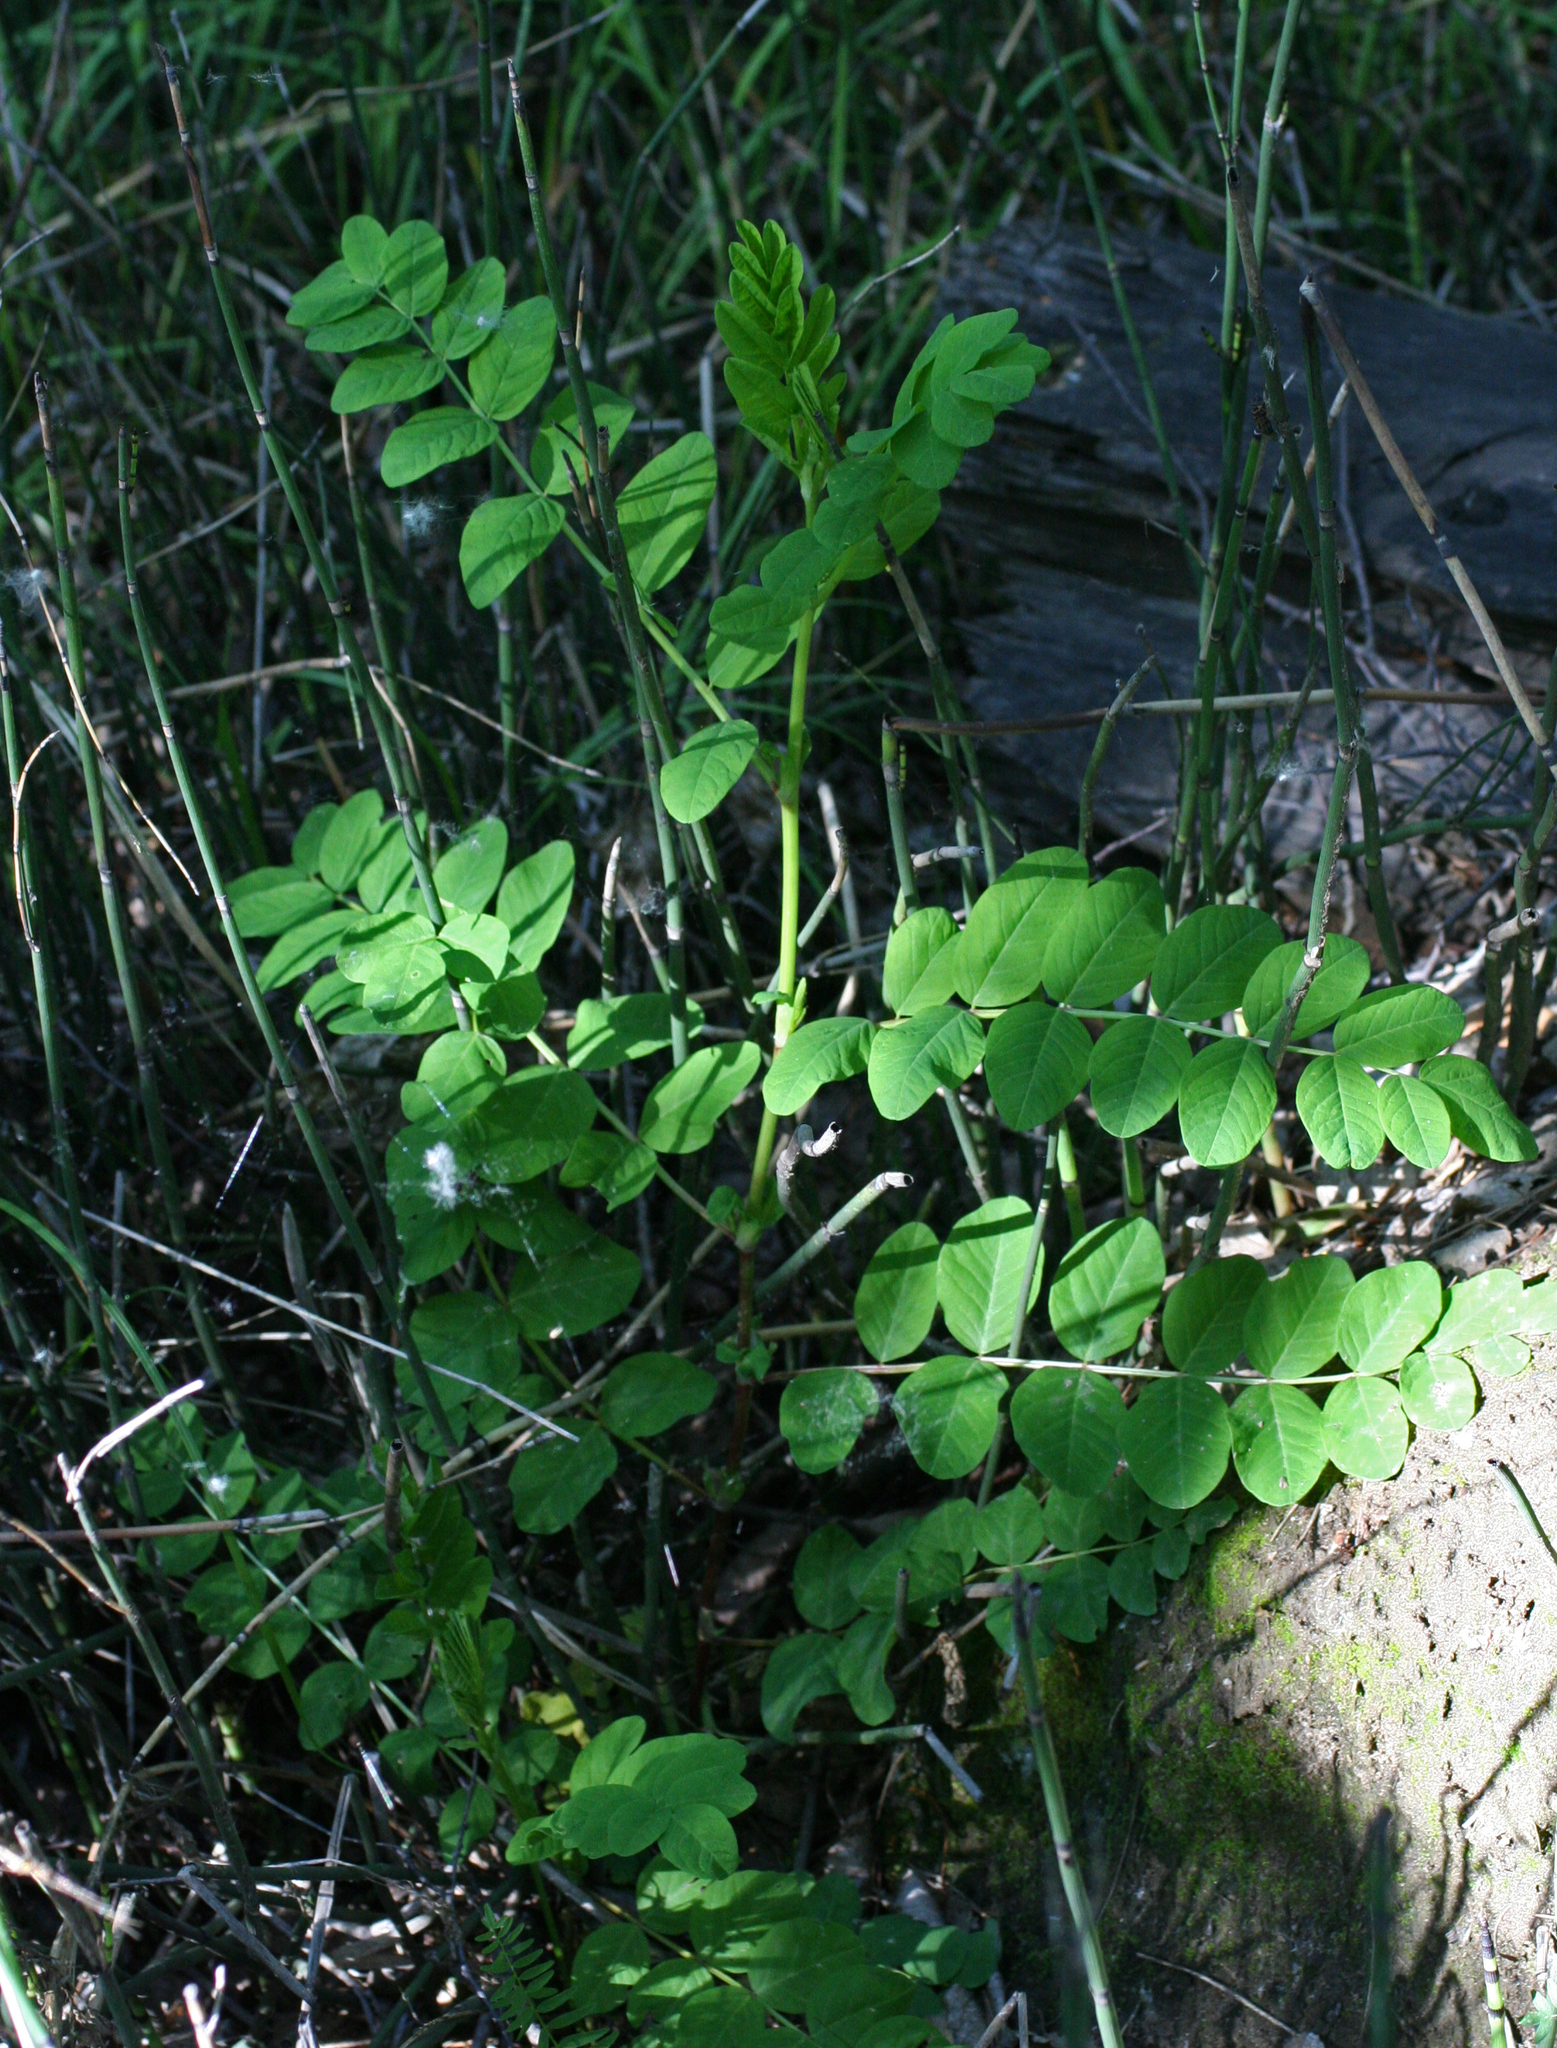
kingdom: Plantae
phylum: Tracheophyta
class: Magnoliopsida
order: Fabales
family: Fabaceae
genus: Astragalus
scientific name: Astragalus glycyphyllos
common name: Wild liquorice
